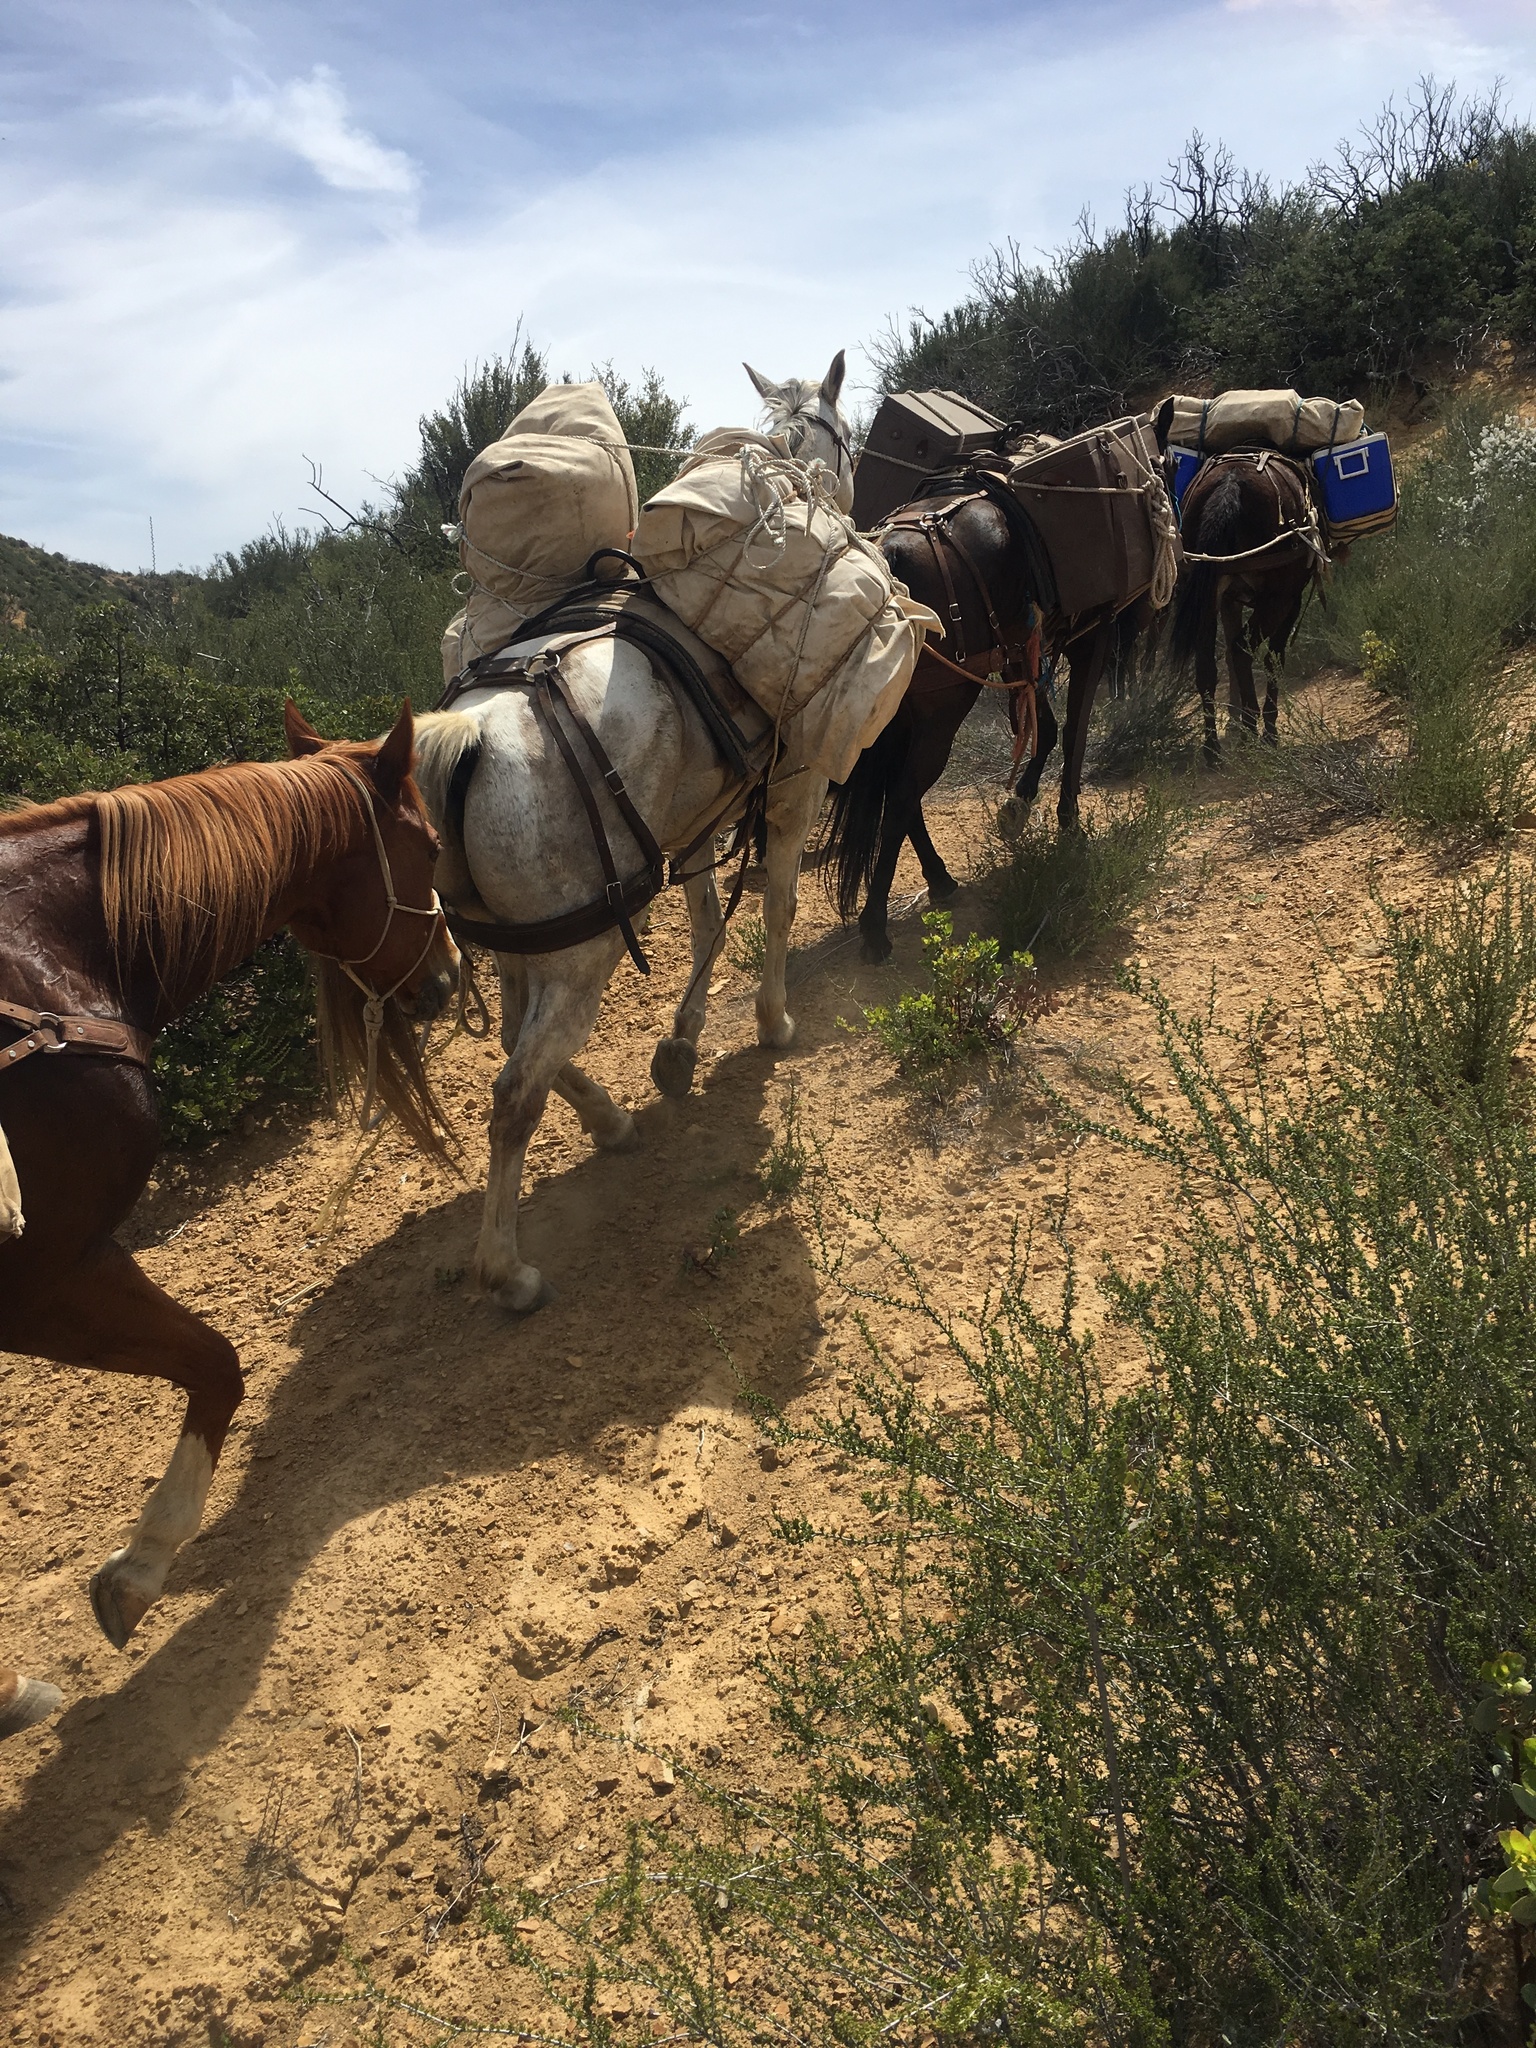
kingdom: Plantae
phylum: Tracheophyta
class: Magnoliopsida
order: Rosales
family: Rosaceae
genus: Adenostoma
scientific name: Adenostoma fasciculatum
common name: Chamise
